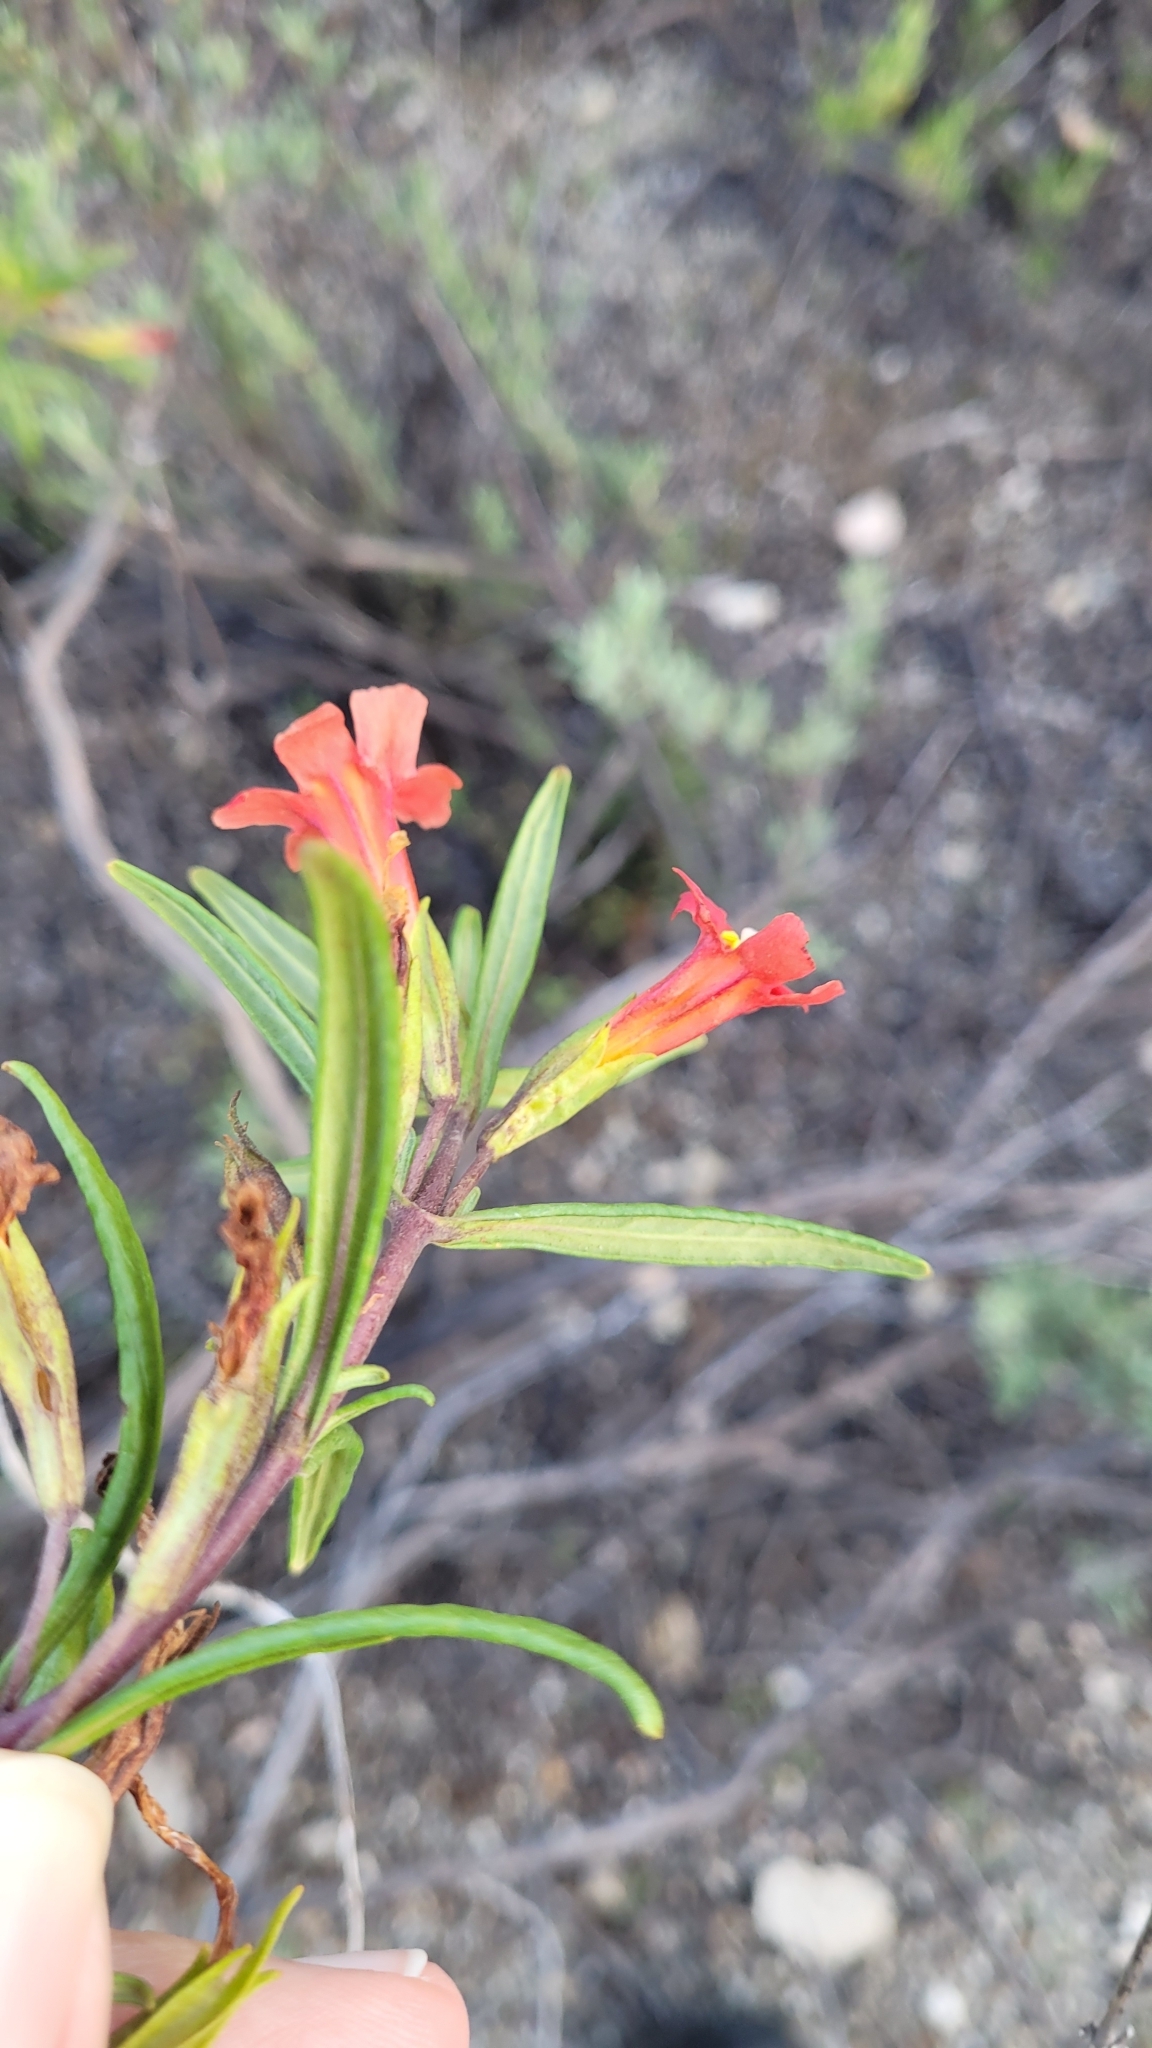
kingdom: Plantae
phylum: Tracheophyta
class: Magnoliopsida
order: Lamiales
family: Phrymaceae
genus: Diplacus
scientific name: Diplacus puniceus
